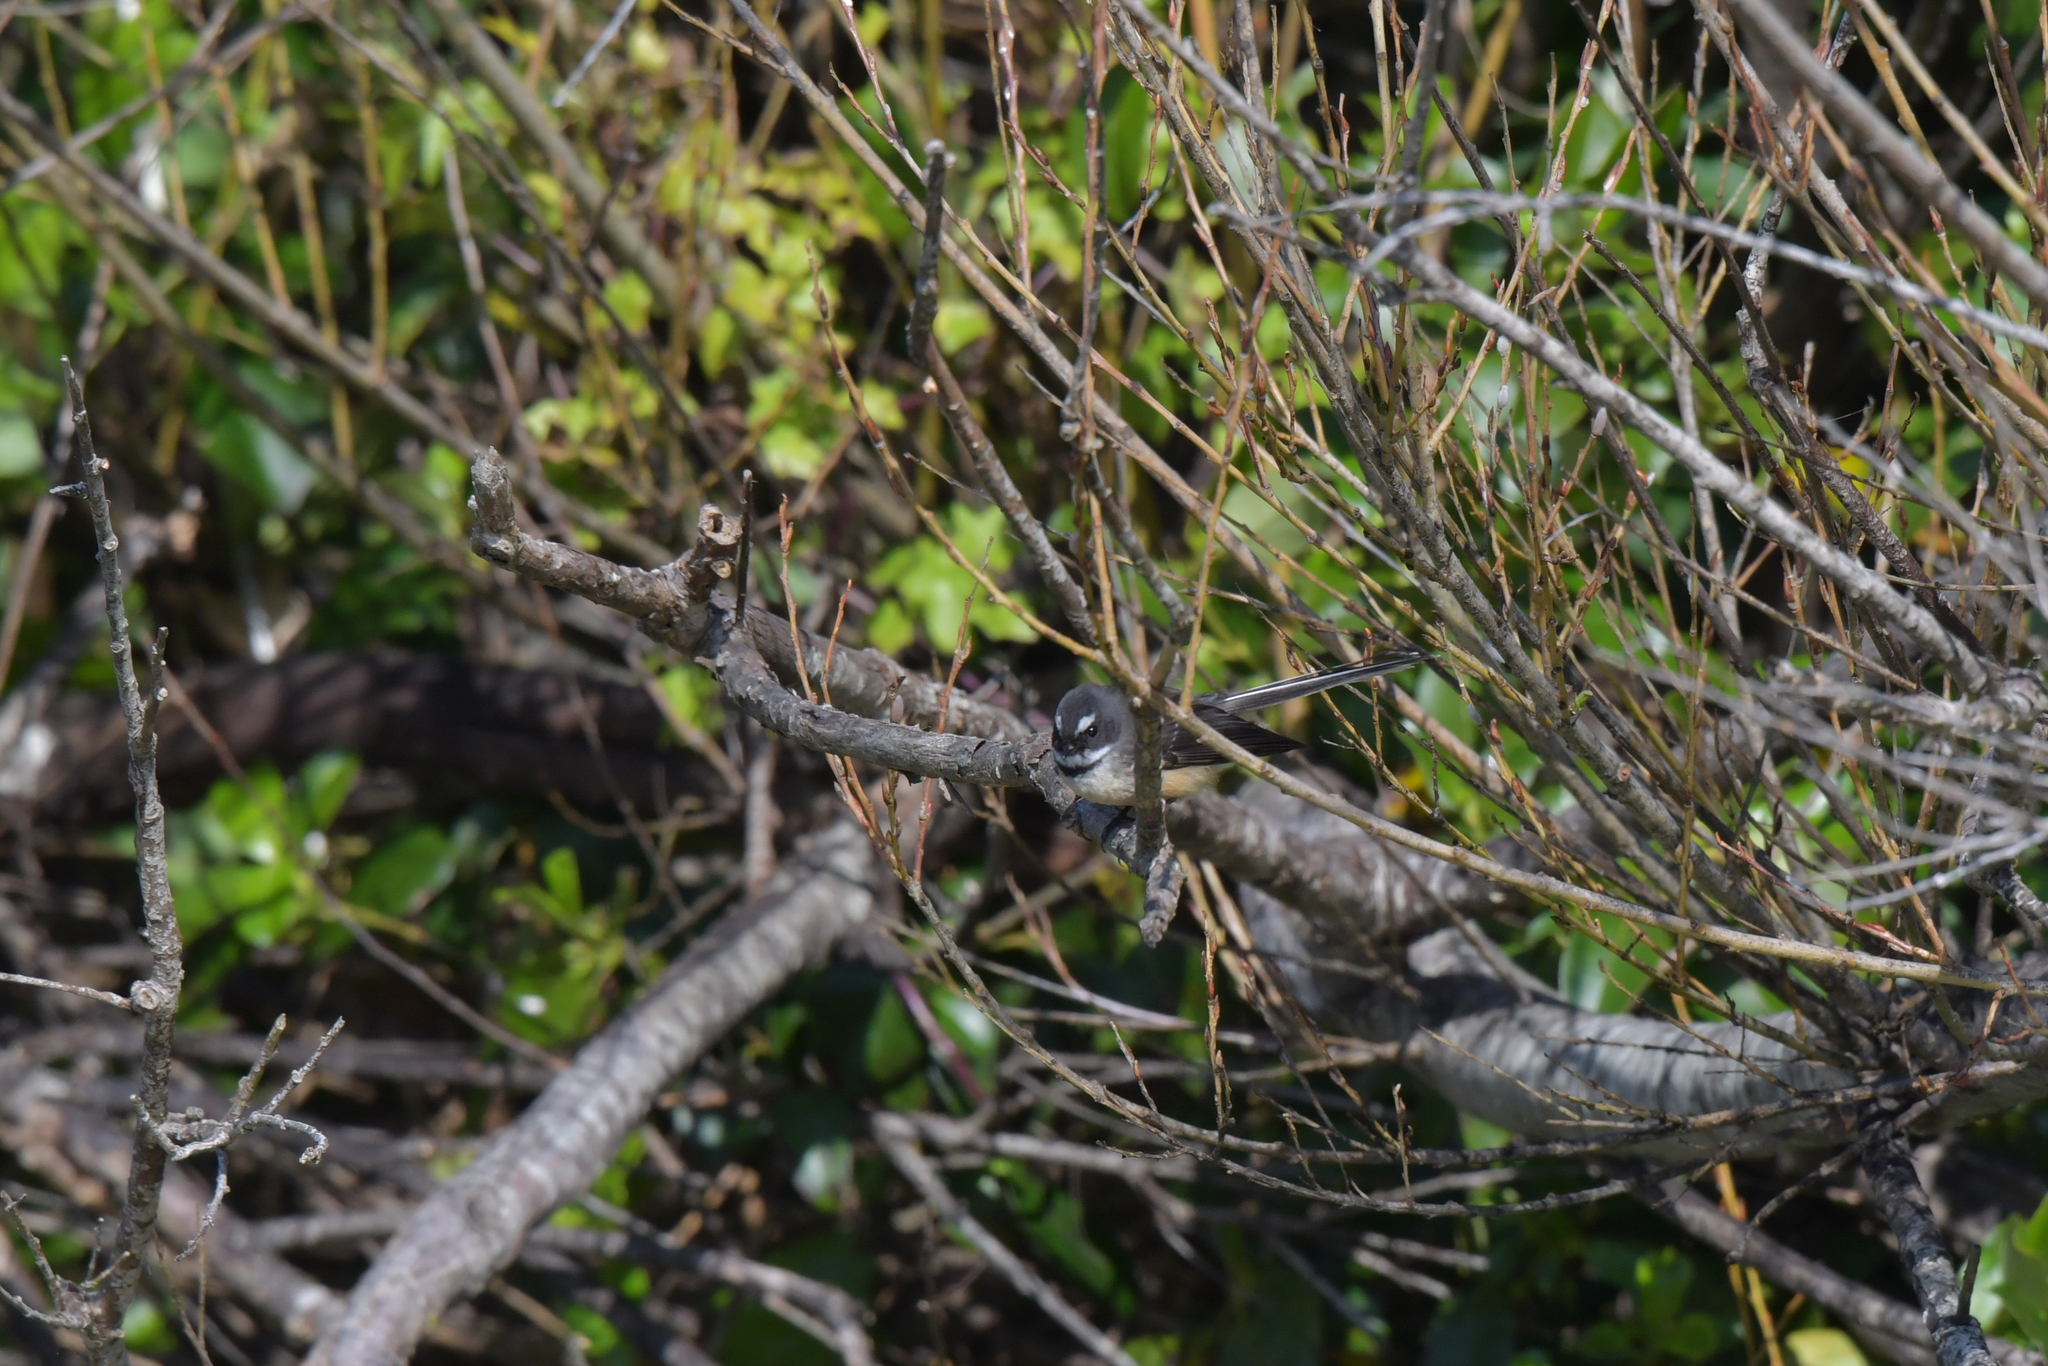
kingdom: Animalia
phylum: Chordata
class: Aves
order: Passeriformes
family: Rhipiduridae
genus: Rhipidura
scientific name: Rhipidura fuliginosa
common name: New zealand fantail
